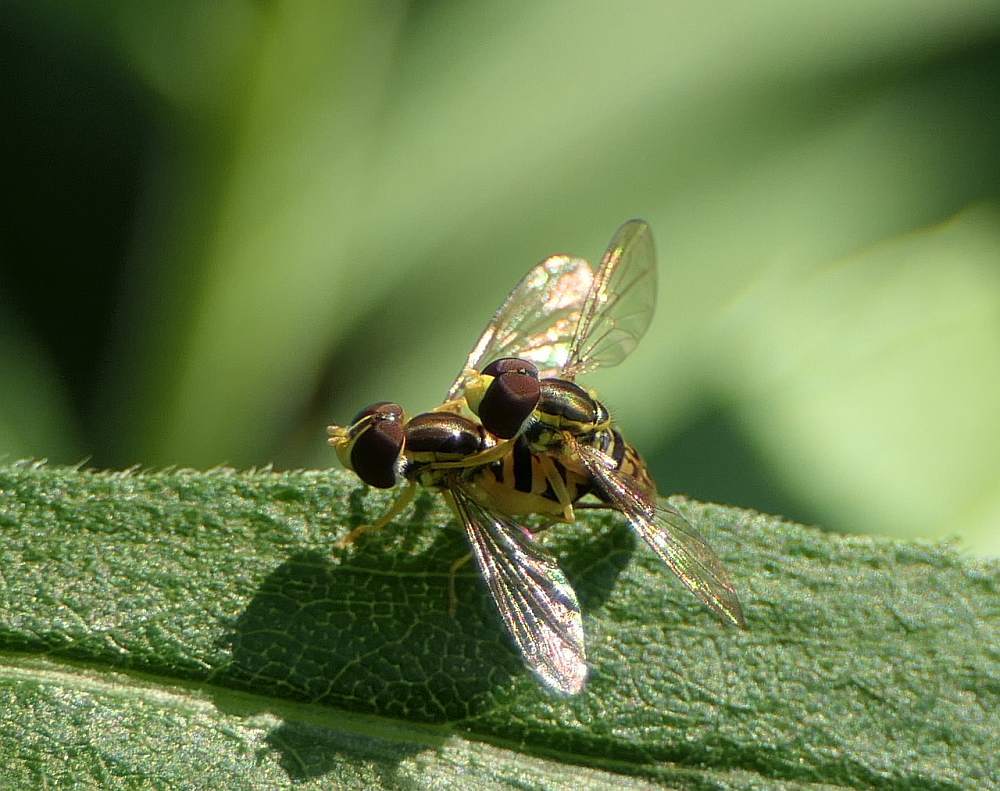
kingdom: Animalia
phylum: Arthropoda
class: Insecta
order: Diptera
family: Syrphidae
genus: Toxomerus
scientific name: Toxomerus marginatus
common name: Syrphid fly
